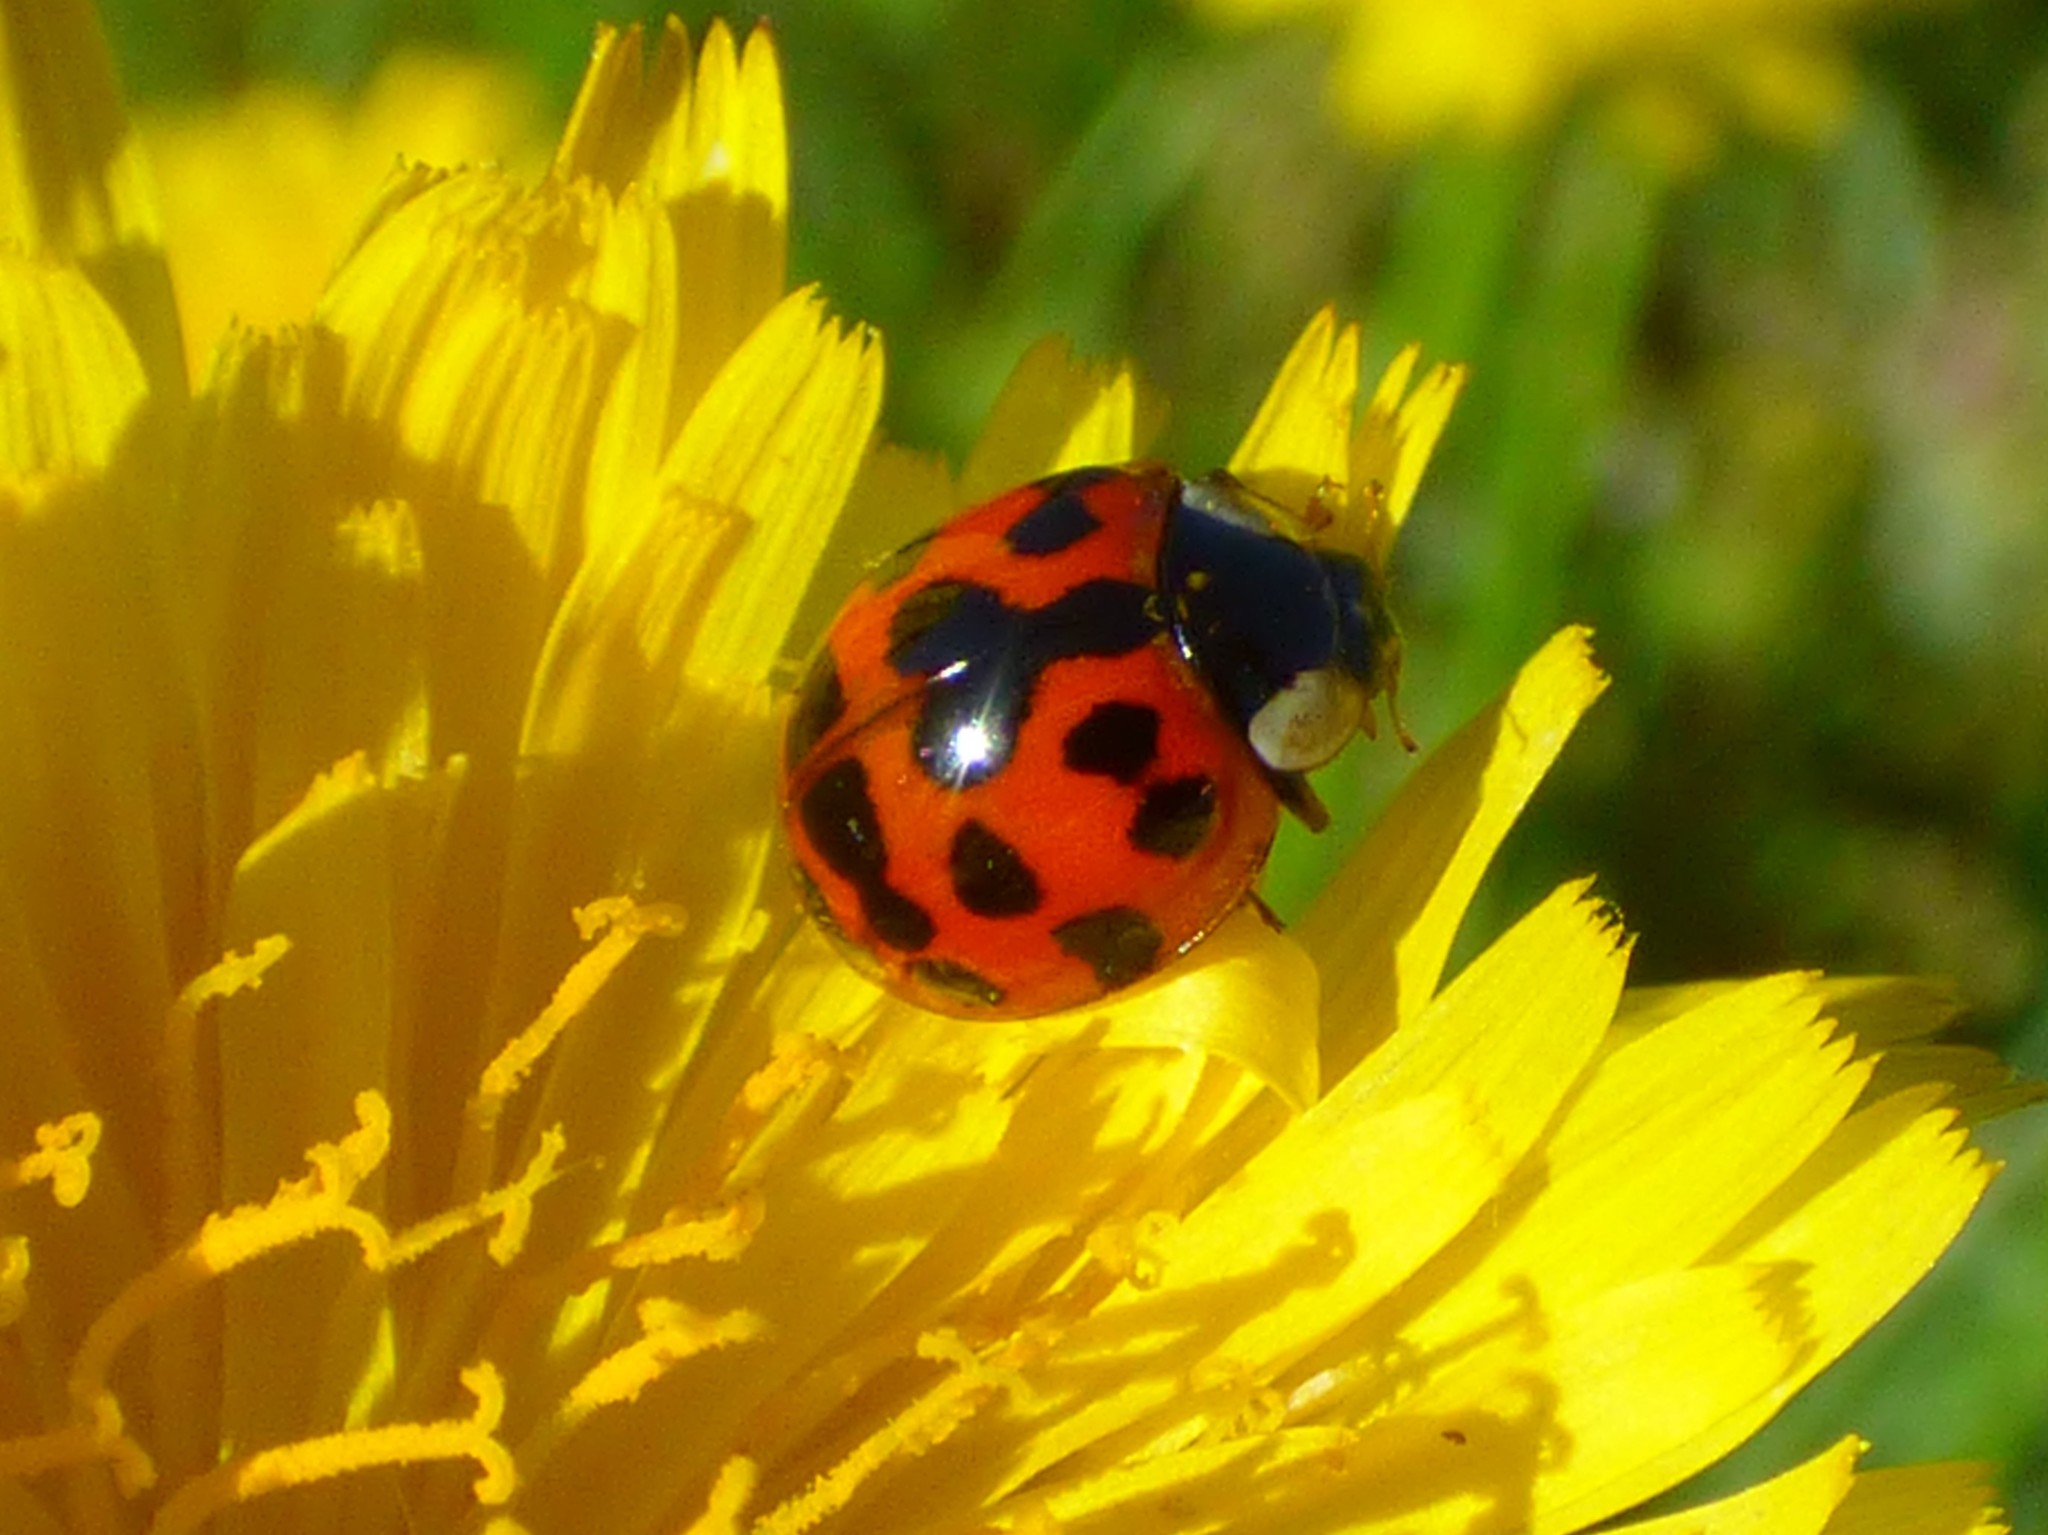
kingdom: Animalia
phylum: Arthropoda
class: Insecta
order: Coleoptera
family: Coccinellidae
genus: Harmonia
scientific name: Harmonia axyridis
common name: Harlequin ladybird
